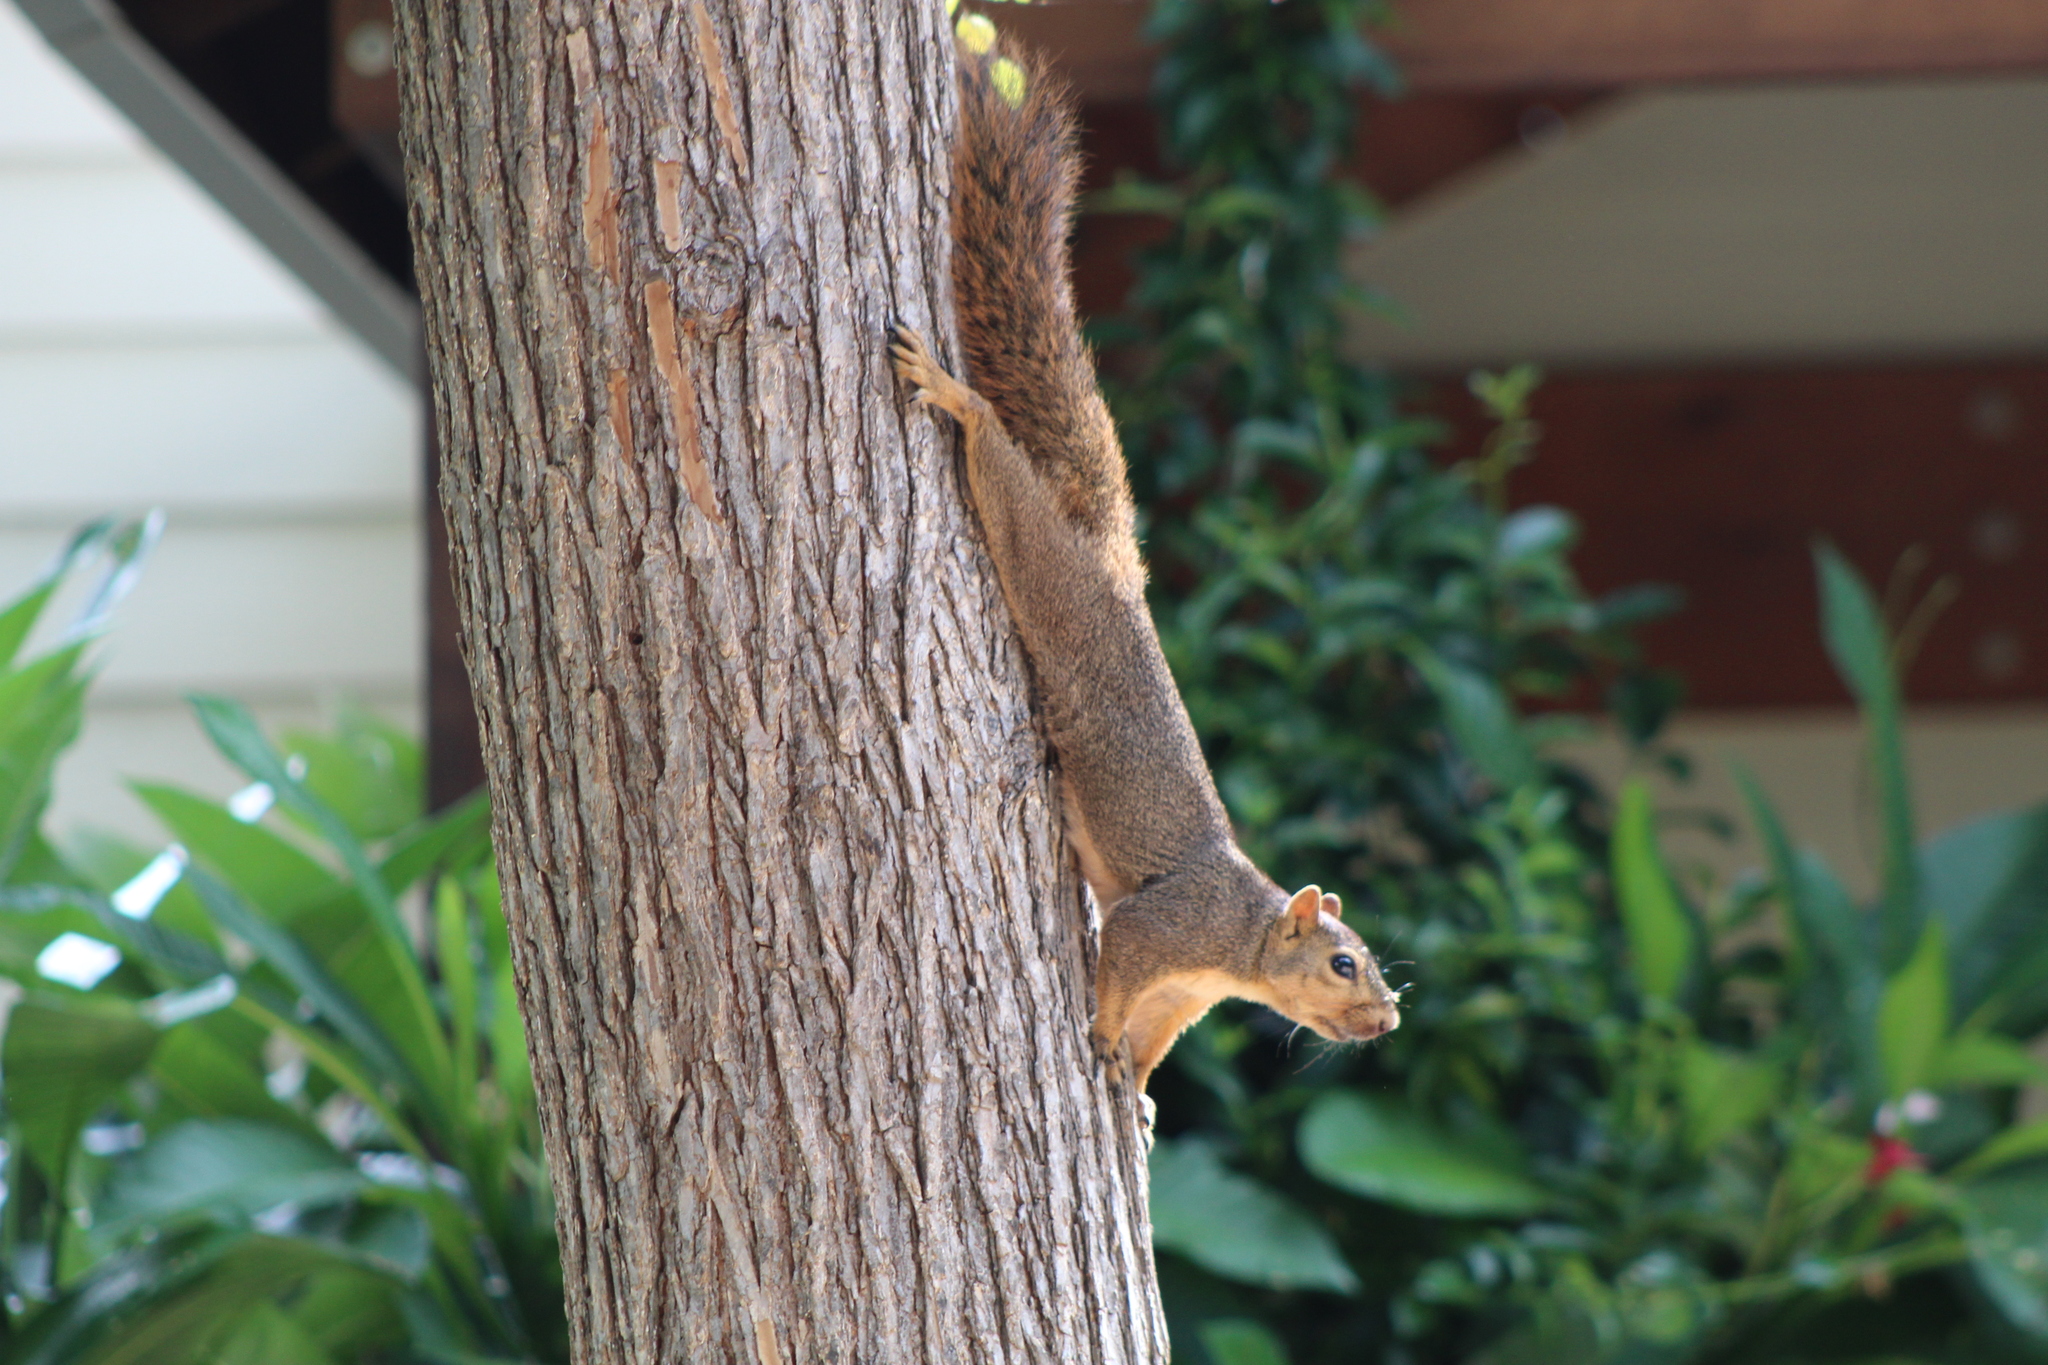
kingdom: Animalia
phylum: Chordata
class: Mammalia
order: Rodentia
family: Sciuridae
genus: Sciurus
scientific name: Sciurus niger
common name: Fox squirrel
